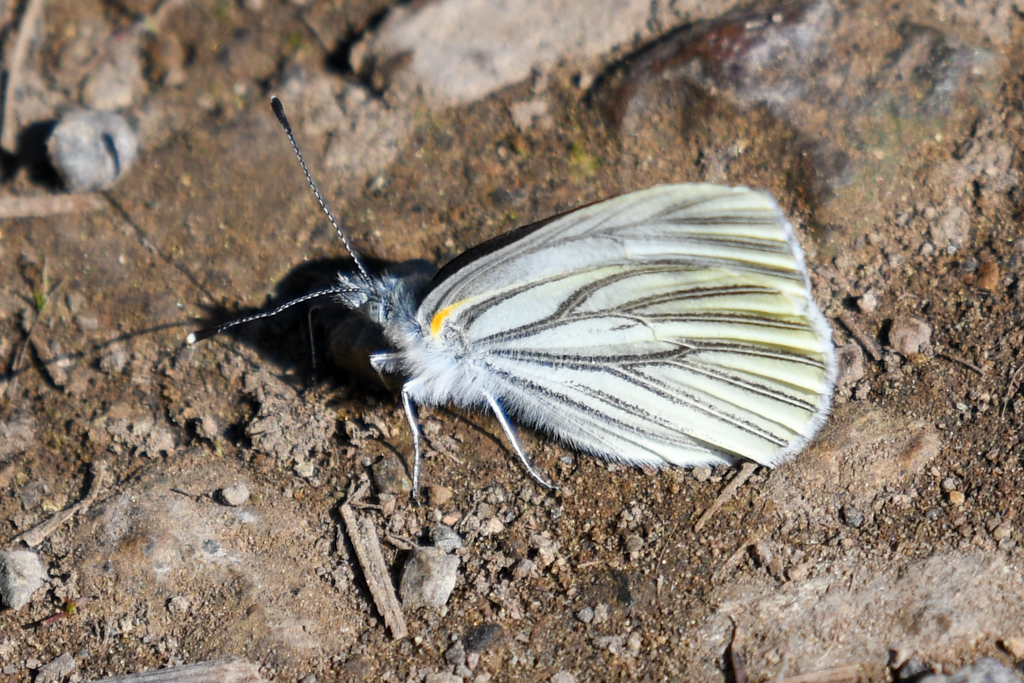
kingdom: Animalia
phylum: Arthropoda
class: Insecta
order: Lepidoptera
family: Pieridae
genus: Pieris
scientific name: Pieris marginalis
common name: Margined white
